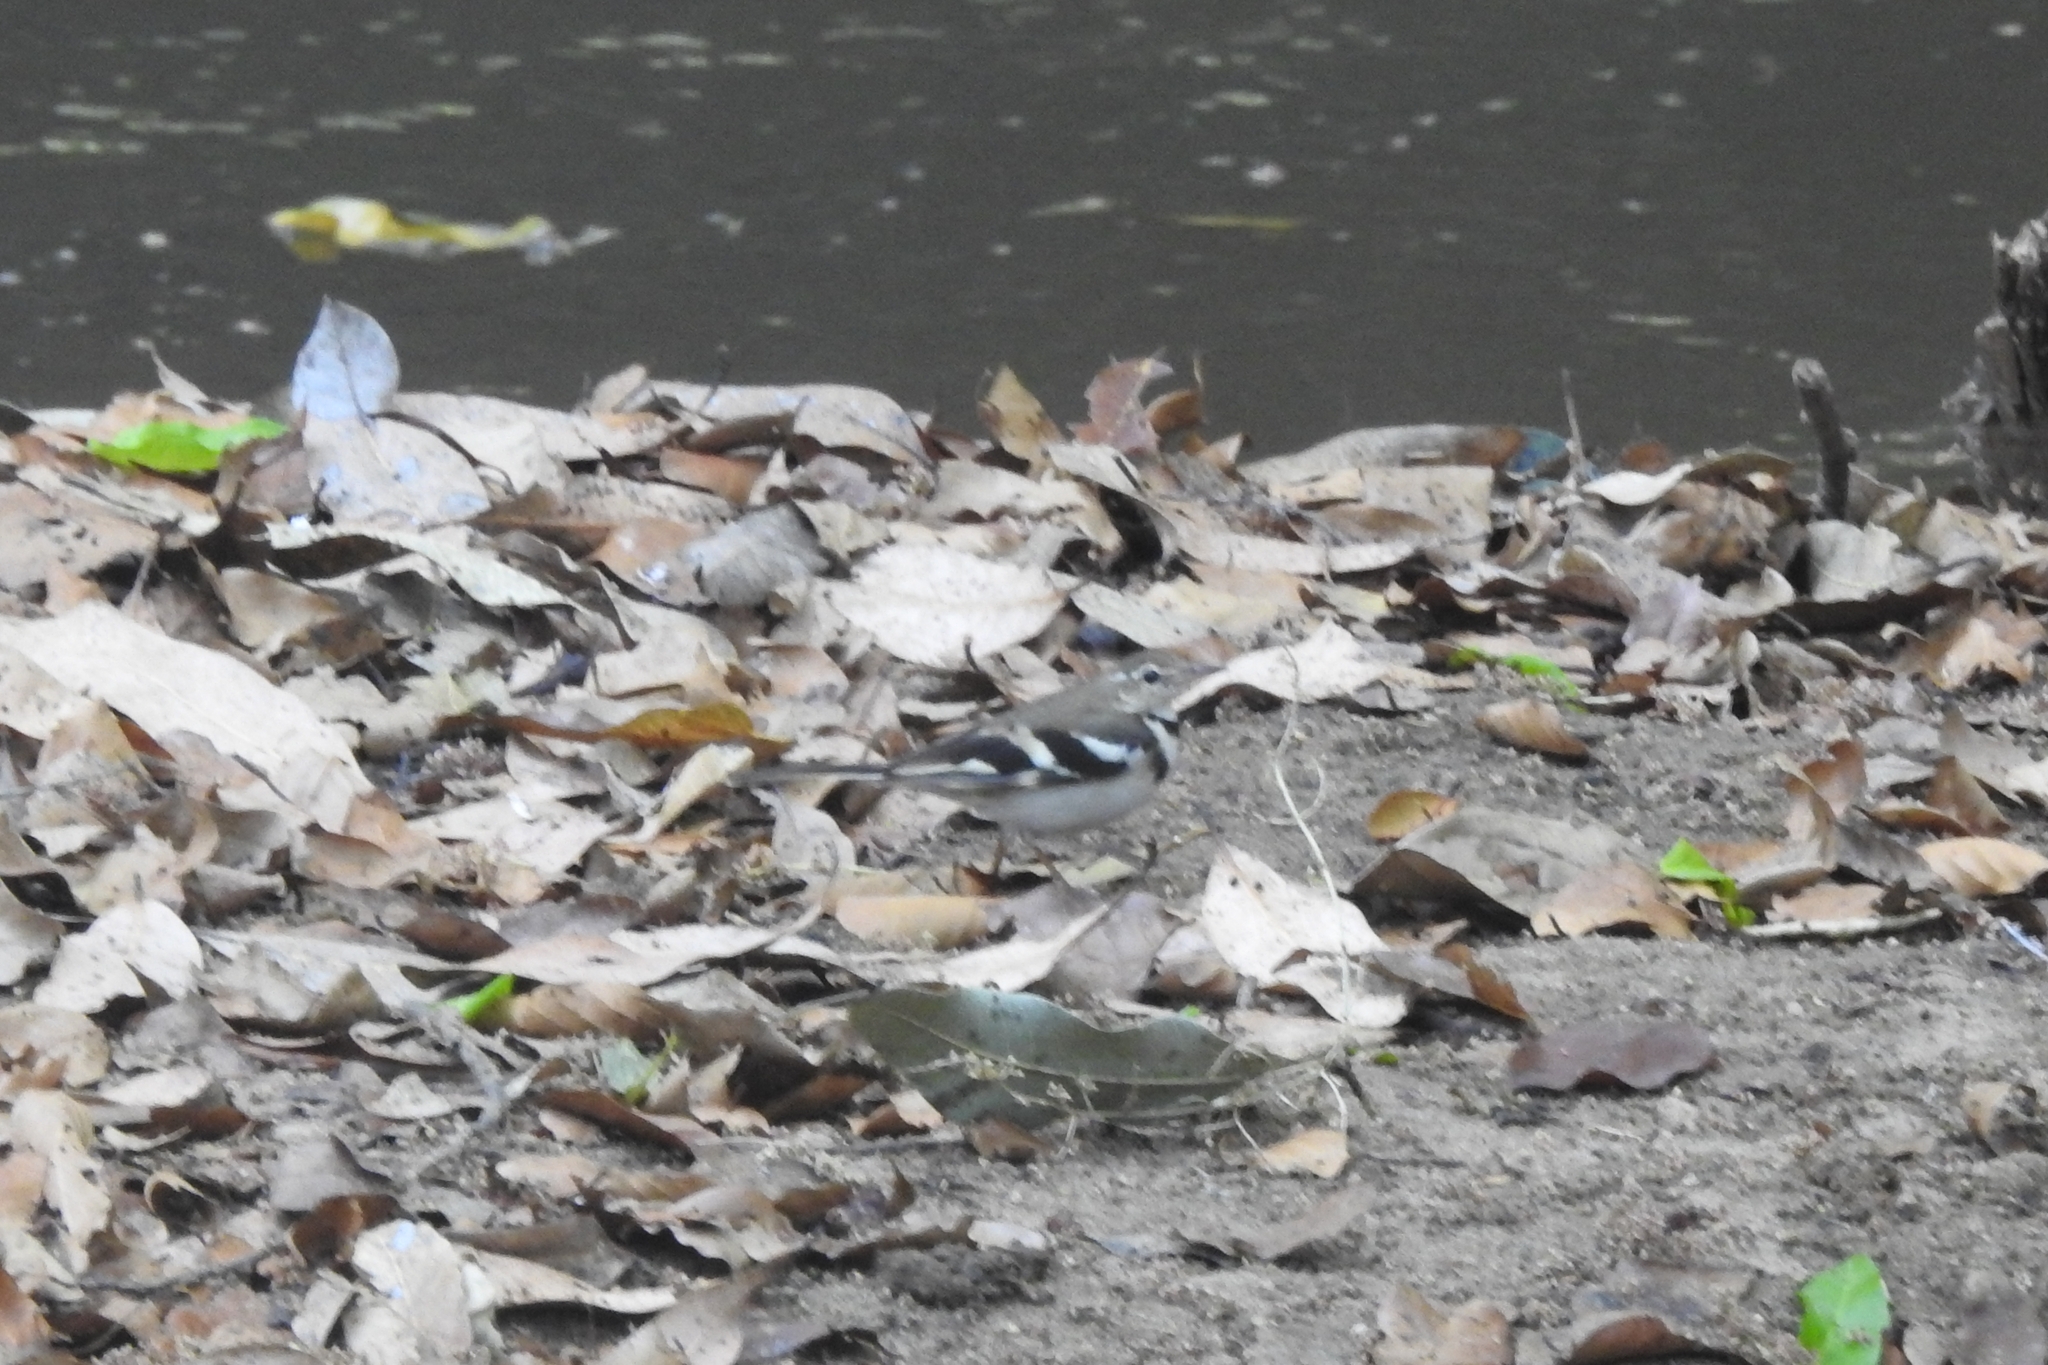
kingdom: Animalia
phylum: Chordata
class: Aves
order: Passeriformes
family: Motacillidae
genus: Dendronanthus
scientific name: Dendronanthus indicus
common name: Forest wagtail
